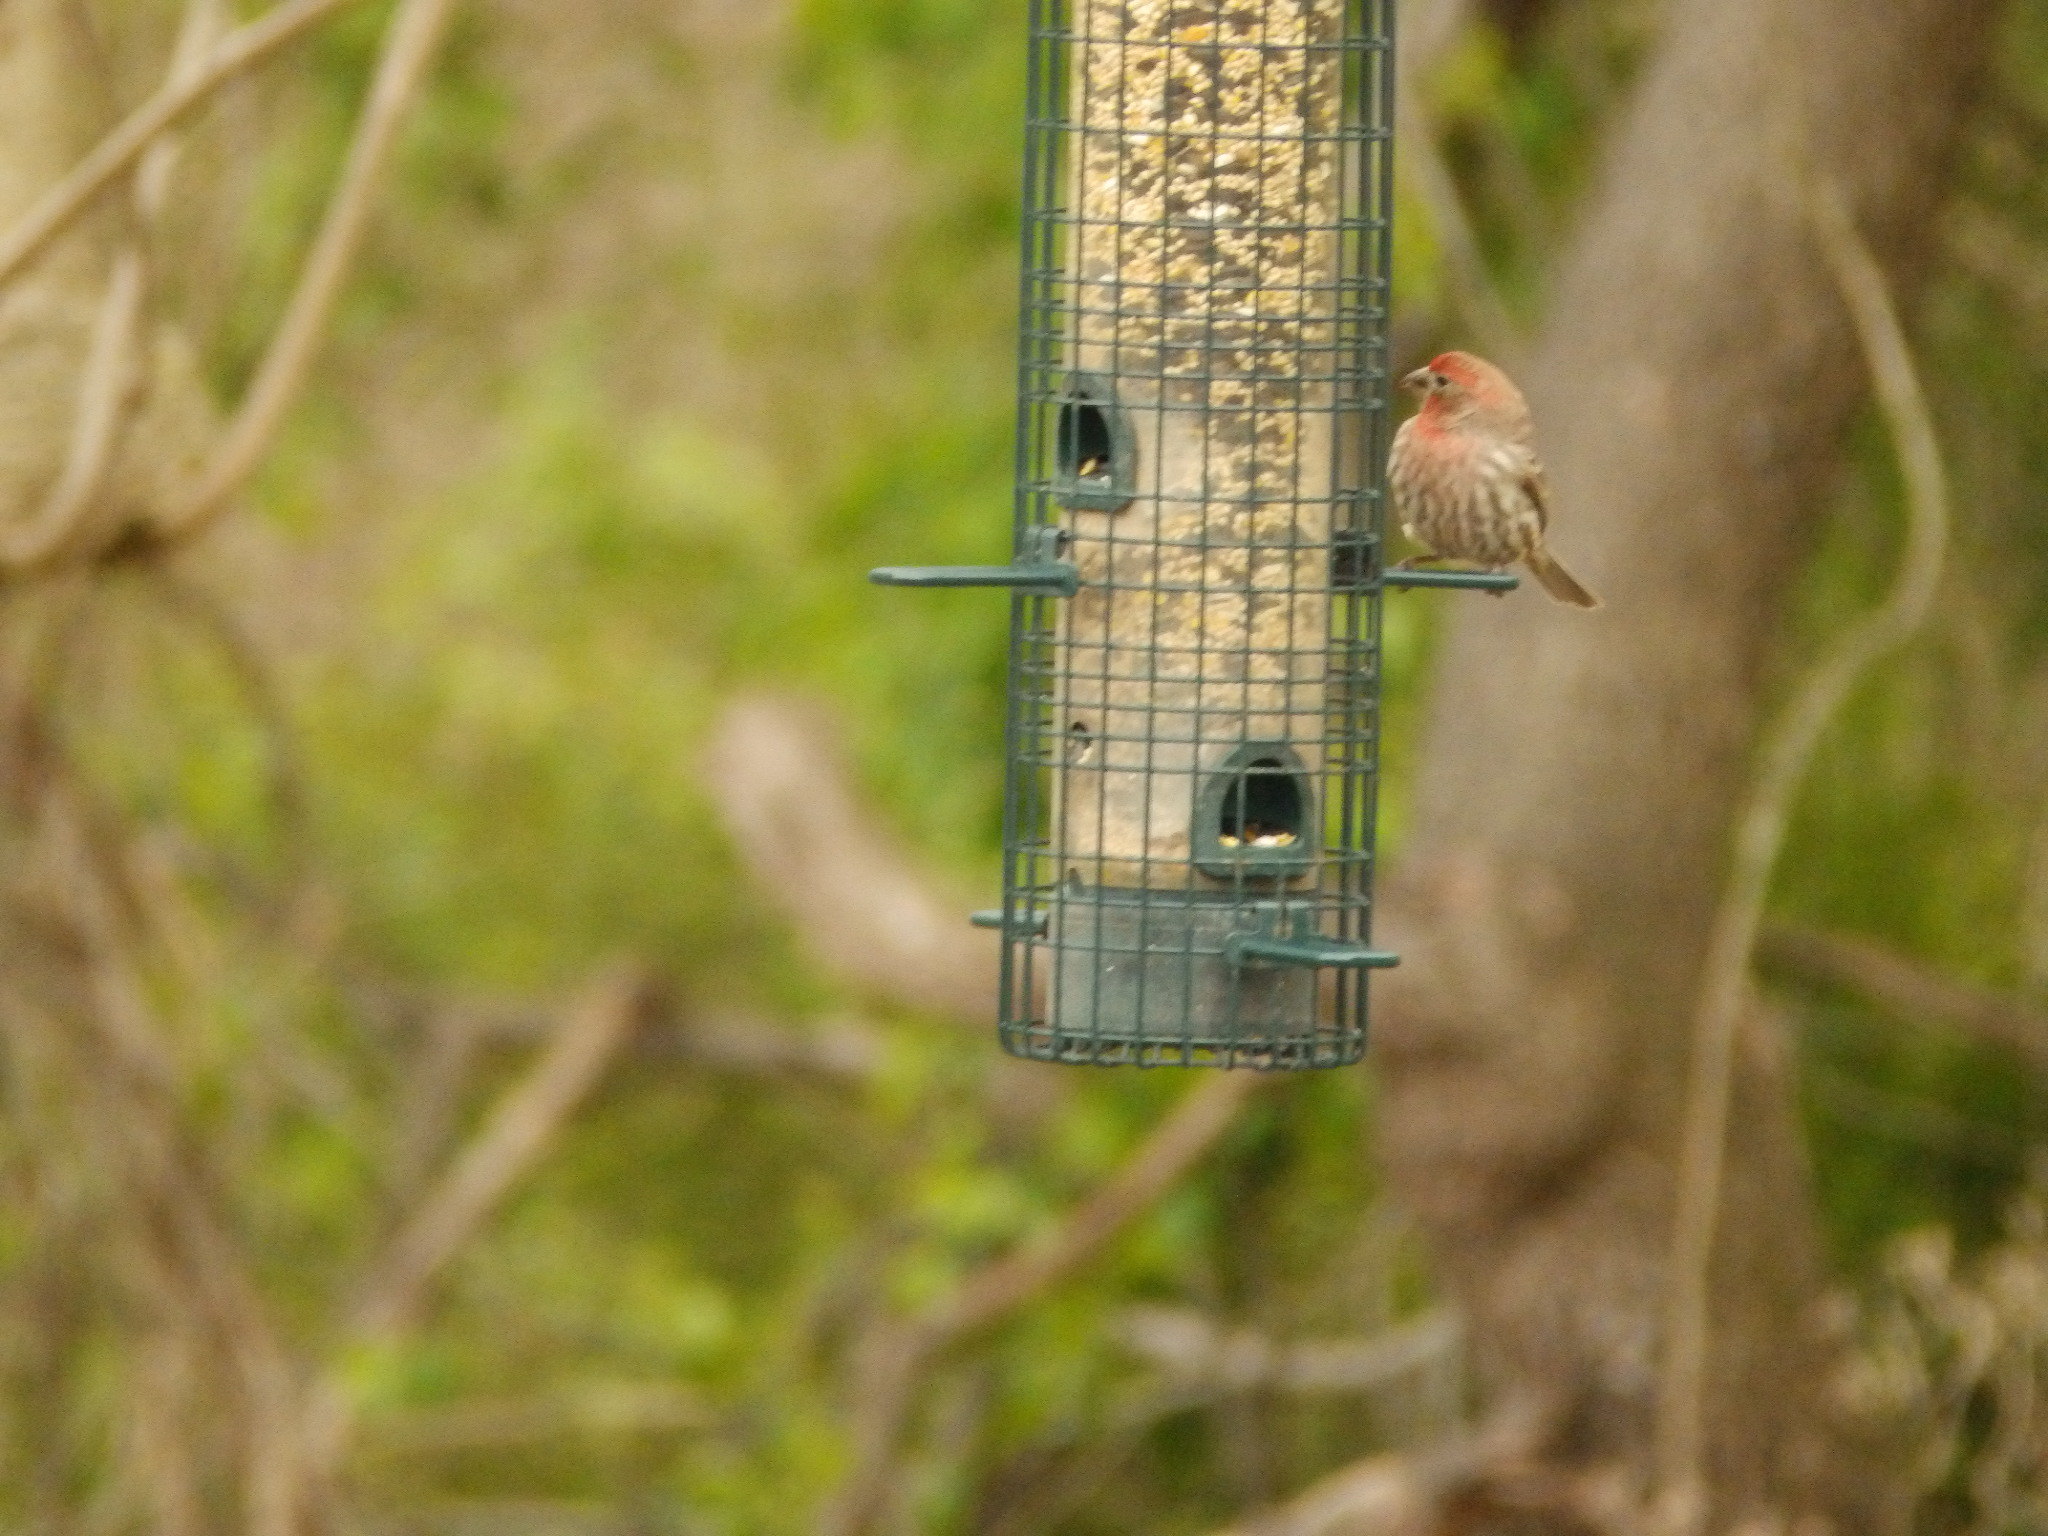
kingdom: Animalia
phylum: Chordata
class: Aves
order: Passeriformes
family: Fringillidae
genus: Haemorhous
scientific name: Haemorhous mexicanus
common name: House finch
